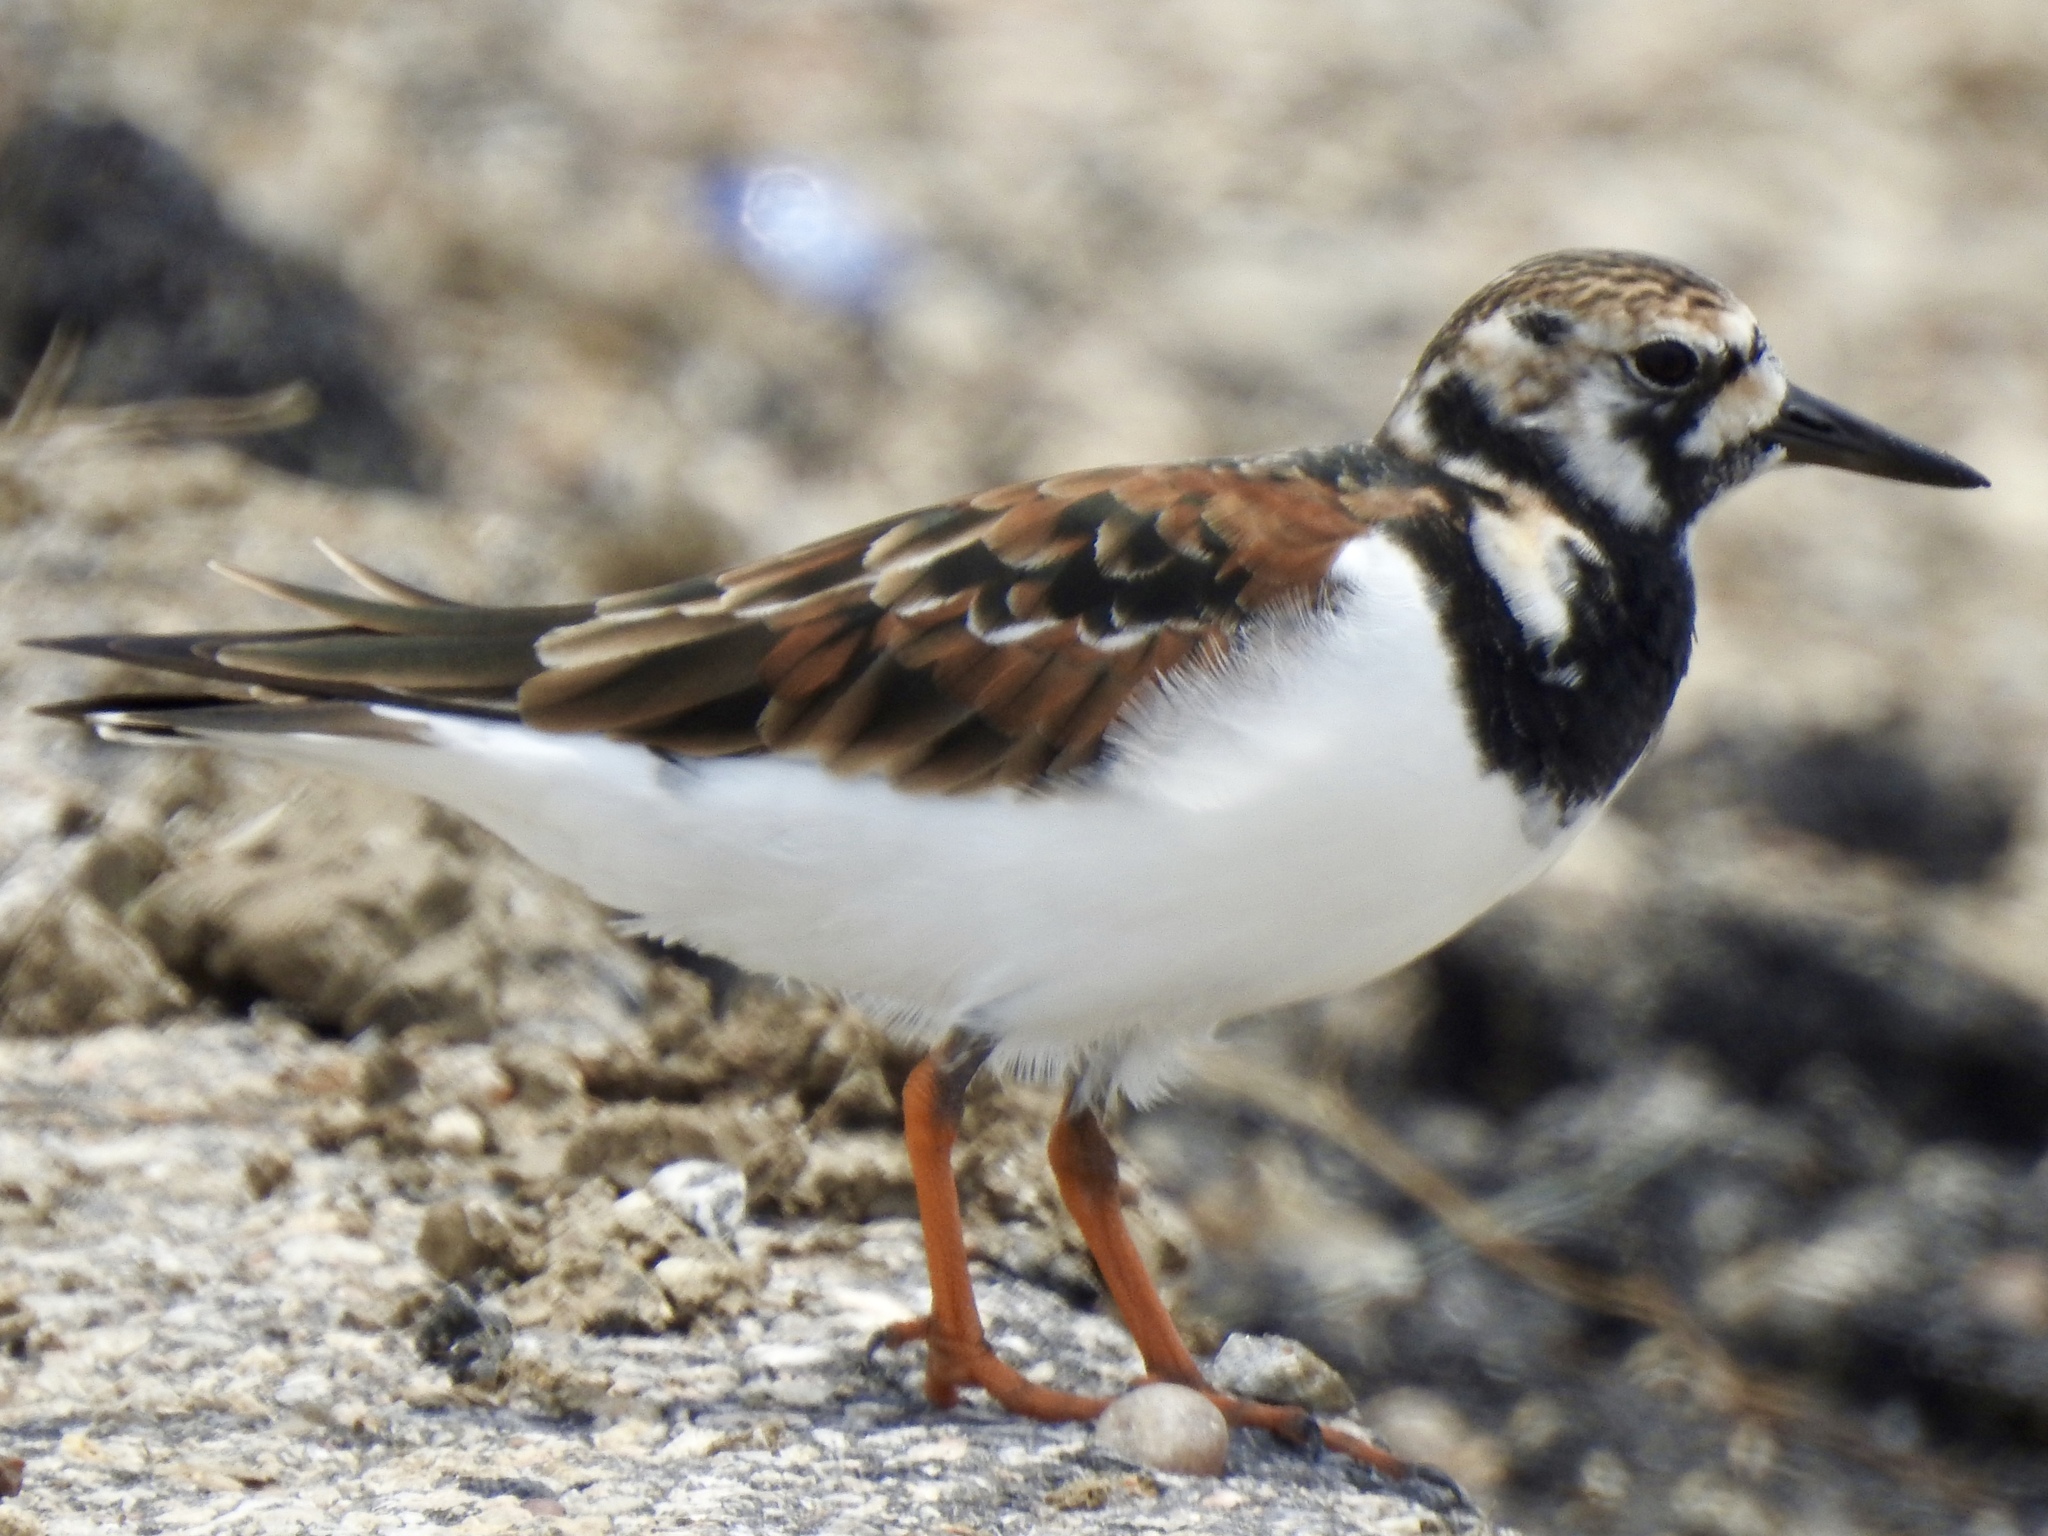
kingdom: Animalia
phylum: Chordata
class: Aves
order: Charadriiformes
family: Scolopacidae
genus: Arenaria
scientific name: Arenaria interpres
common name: Ruddy turnstone
